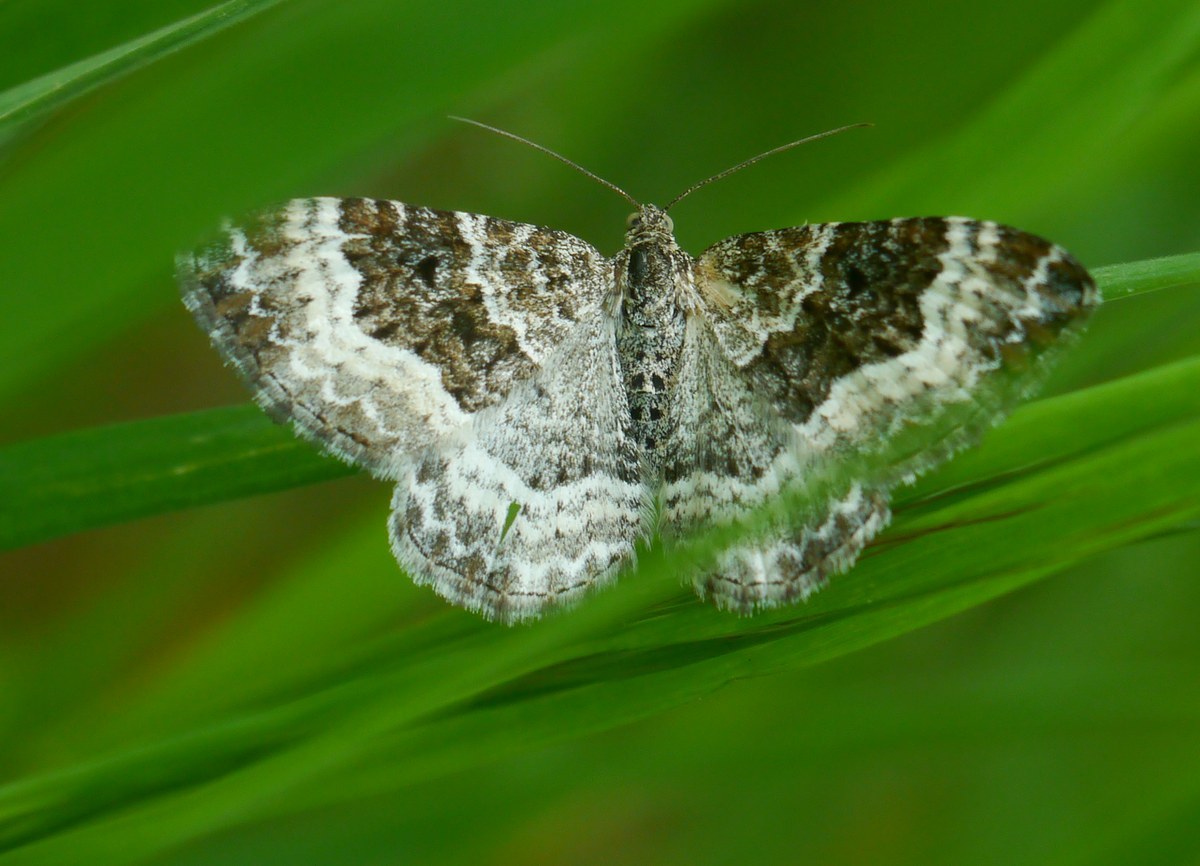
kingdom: Animalia
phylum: Arthropoda
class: Insecta
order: Lepidoptera
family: Geometridae
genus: Epirrhoe
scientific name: Epirrhoe alternata
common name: Common carpet
